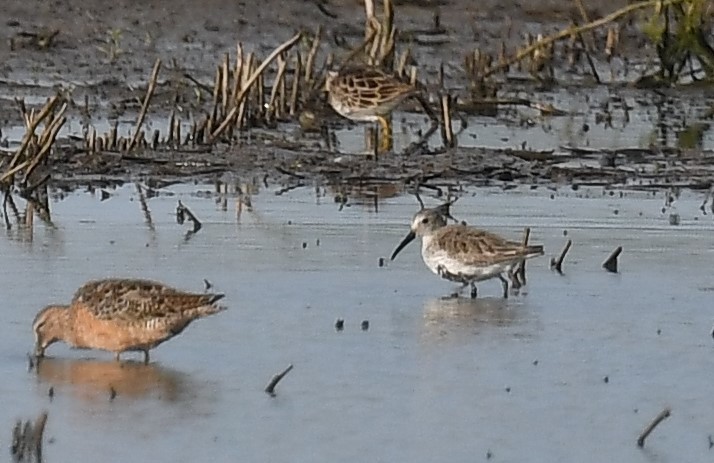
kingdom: Animalia
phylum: Chordata
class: Aves
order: Charadriiformes
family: Scolopacidae
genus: Calidris
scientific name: Calidris alpina
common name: Dunlin
